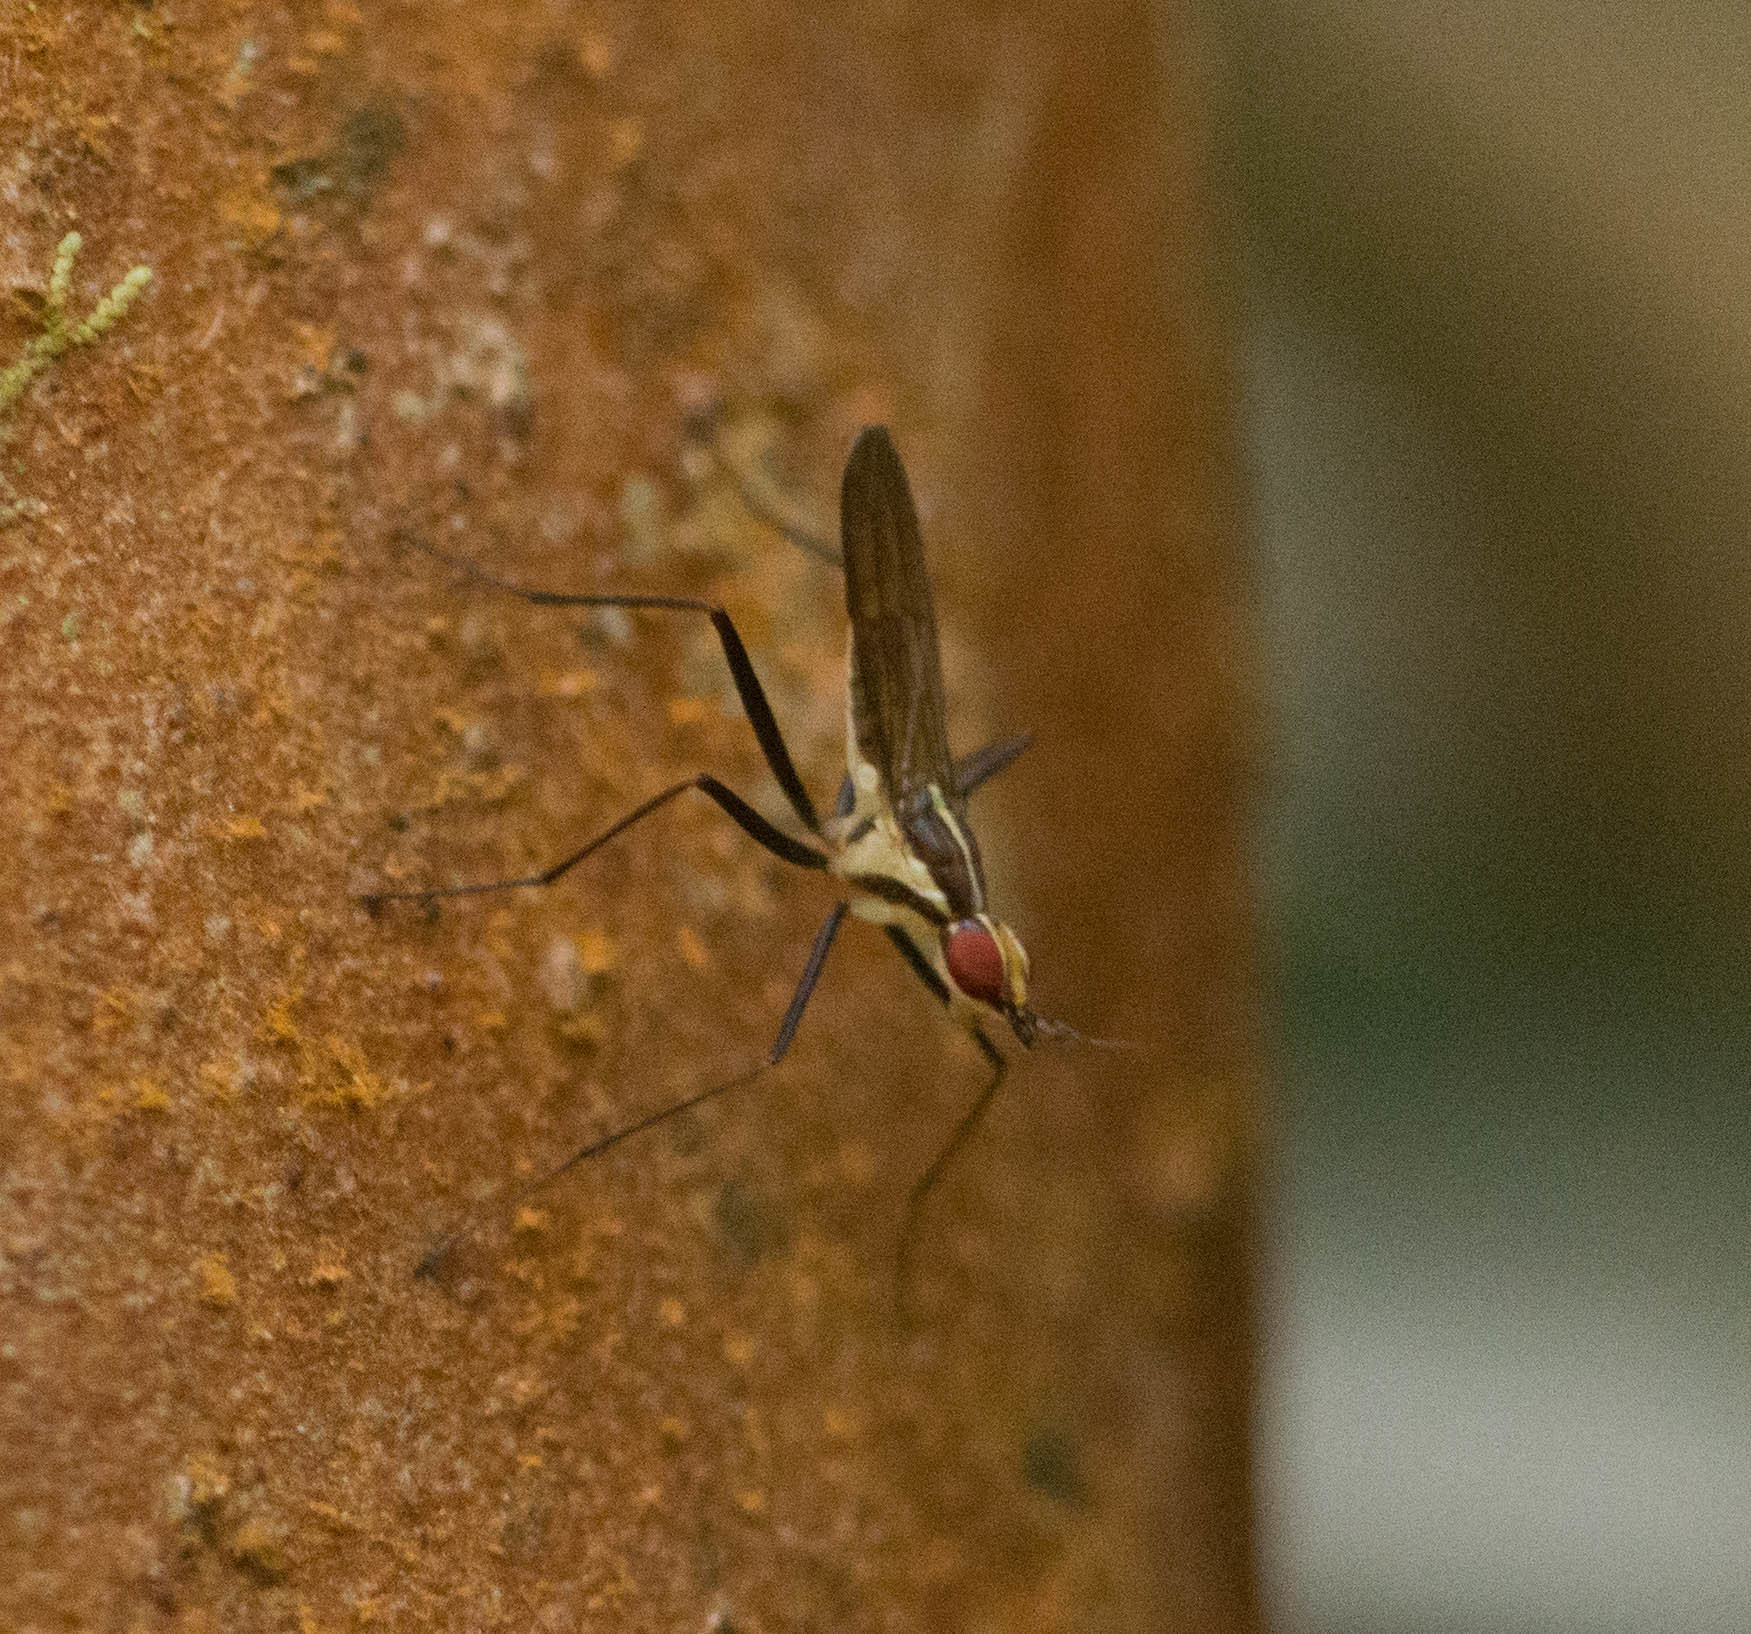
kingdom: Animalia
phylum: Arthropoda
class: Insecta
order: Diptera
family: Neriidae
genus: Telostylinus
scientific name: Telostylinus lineolatus
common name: Banana stalk fly
